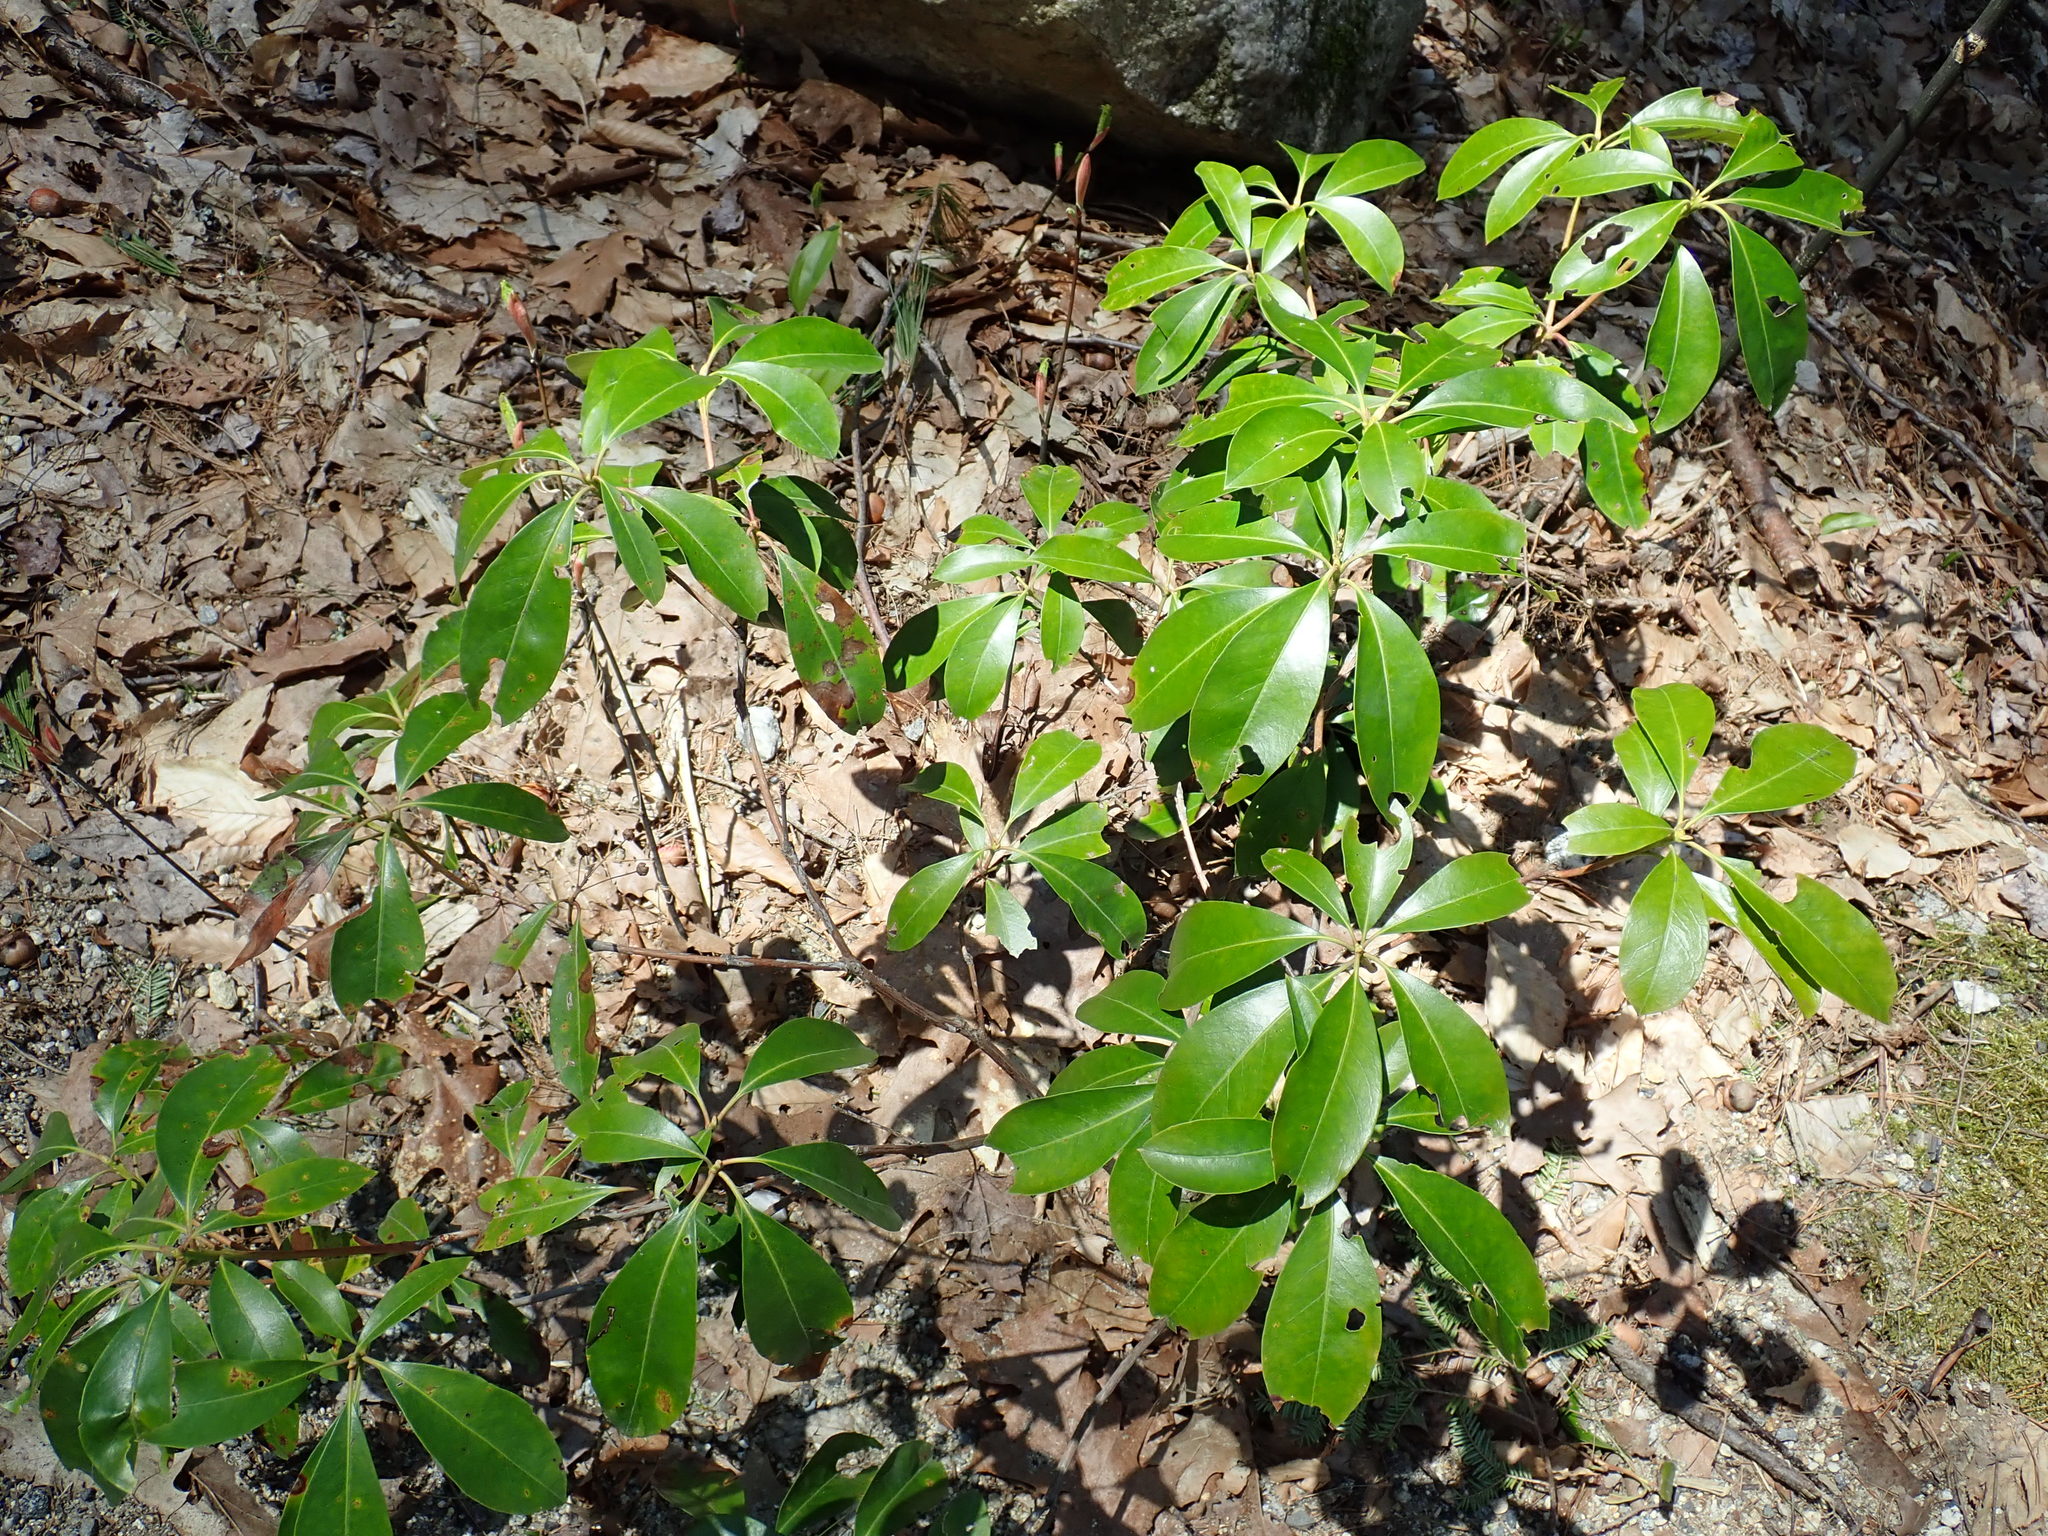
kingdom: Plantae
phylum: Tracheophyta
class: Magnoliopsida
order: Ericales
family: Ericaceae
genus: Kalmia
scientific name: Kalmia latifolia
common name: Mountain-laurel
